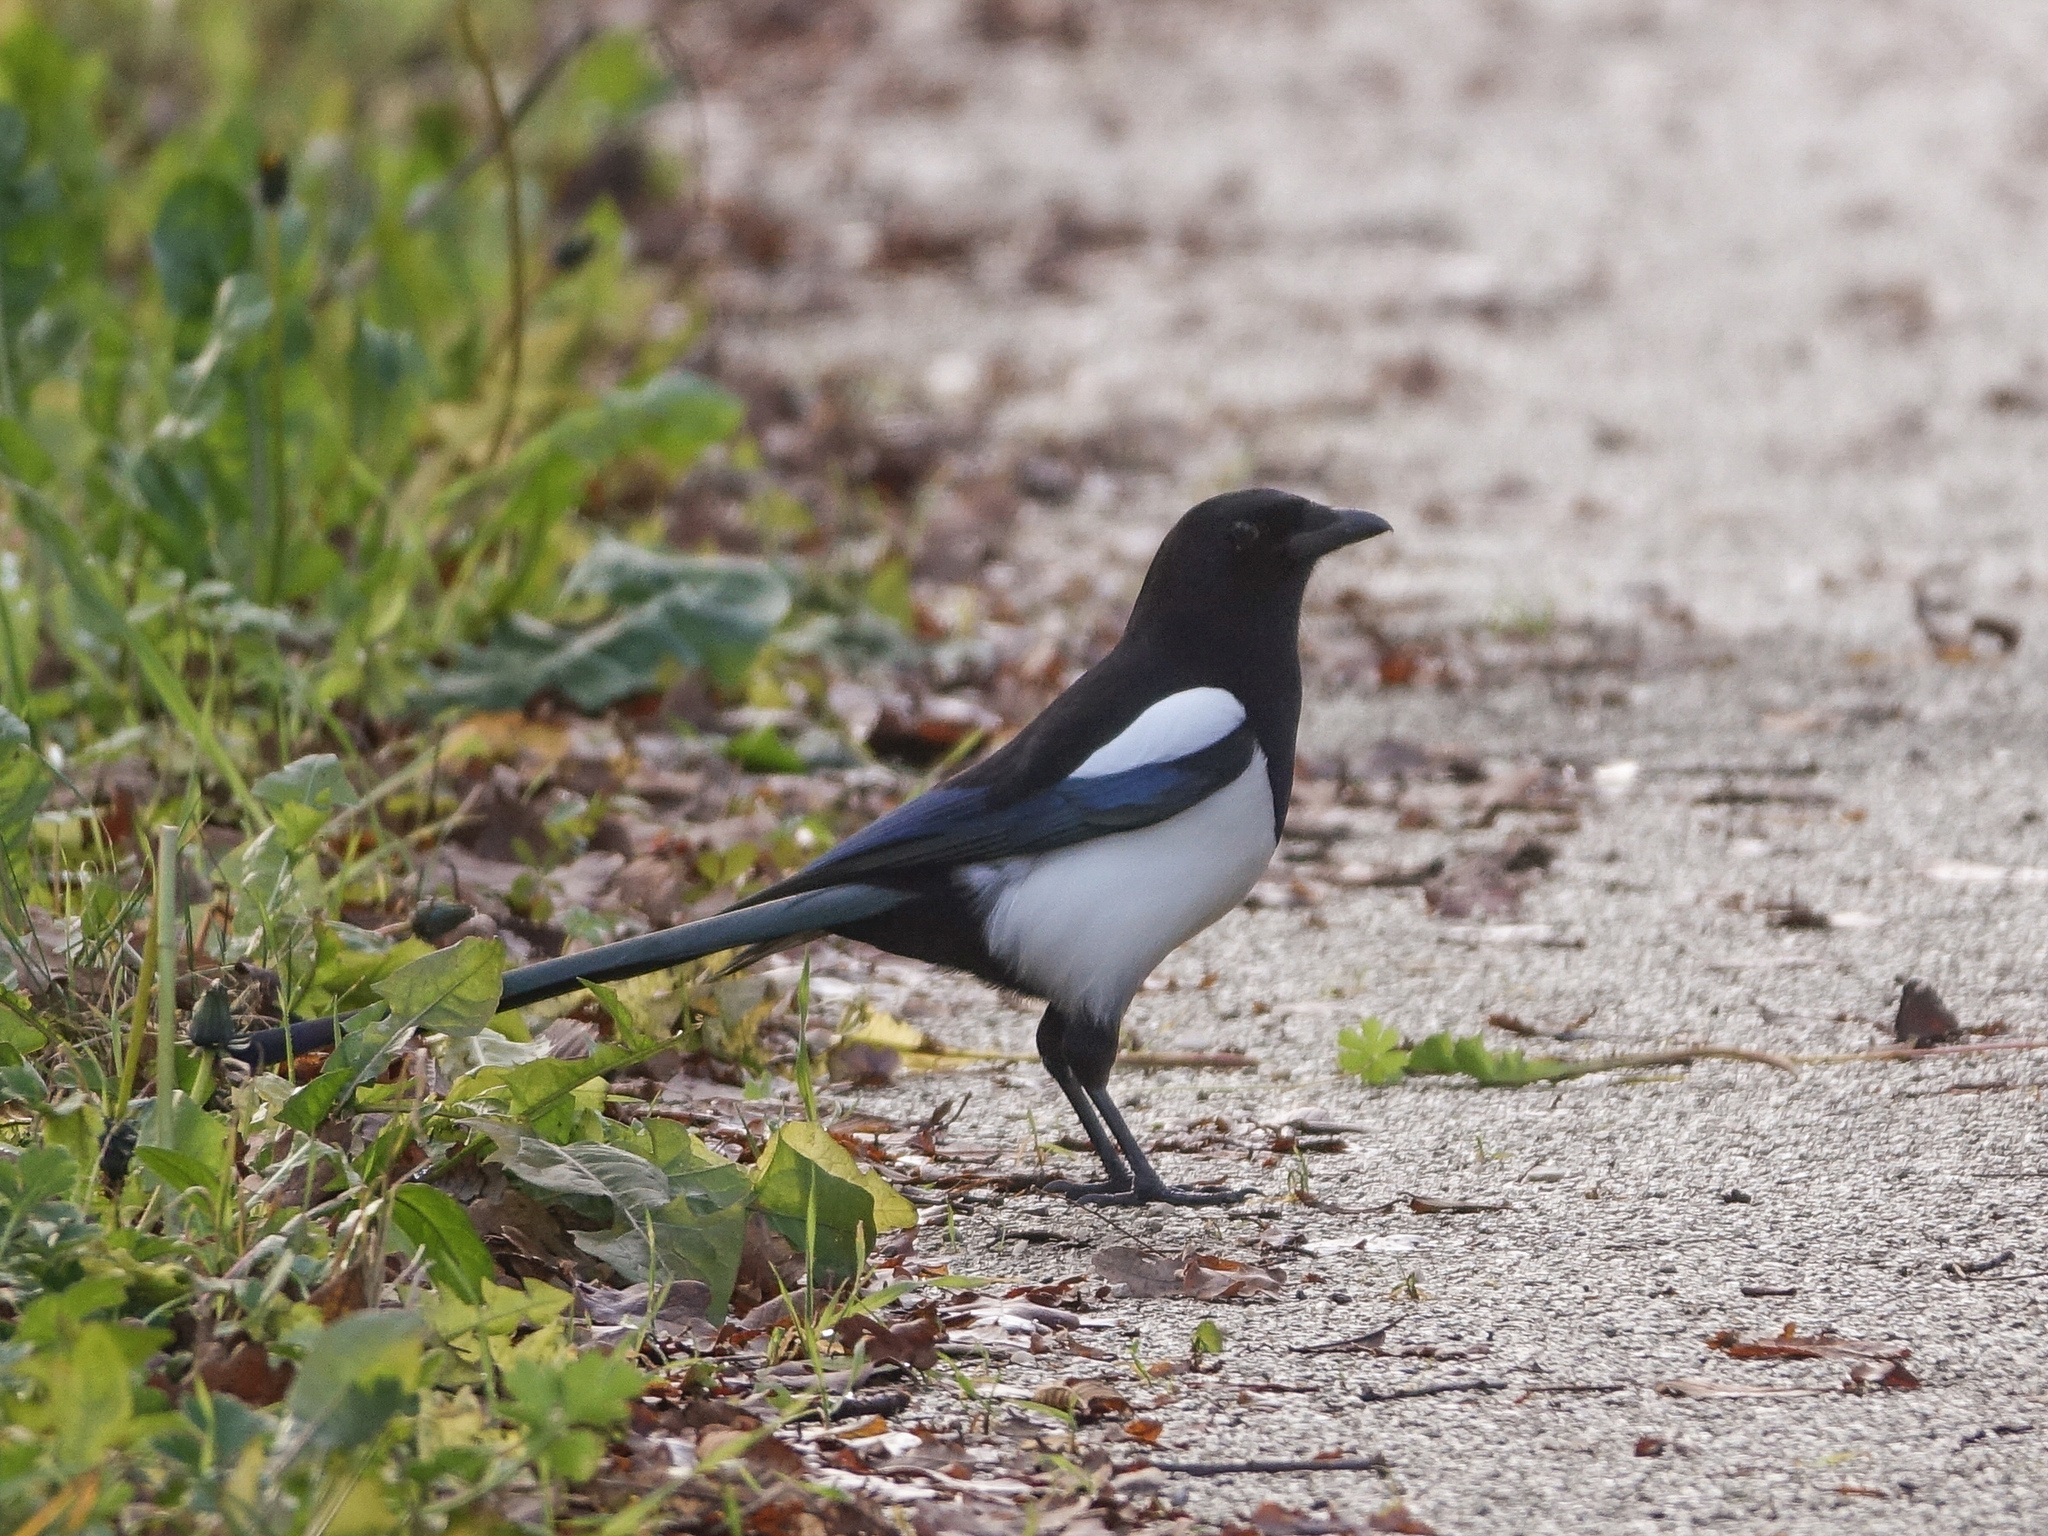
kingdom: Animalia
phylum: Chordata
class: Aves
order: Passeriformes
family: Corvidae
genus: Pica
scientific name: Pica pica
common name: Eurasian magpie
